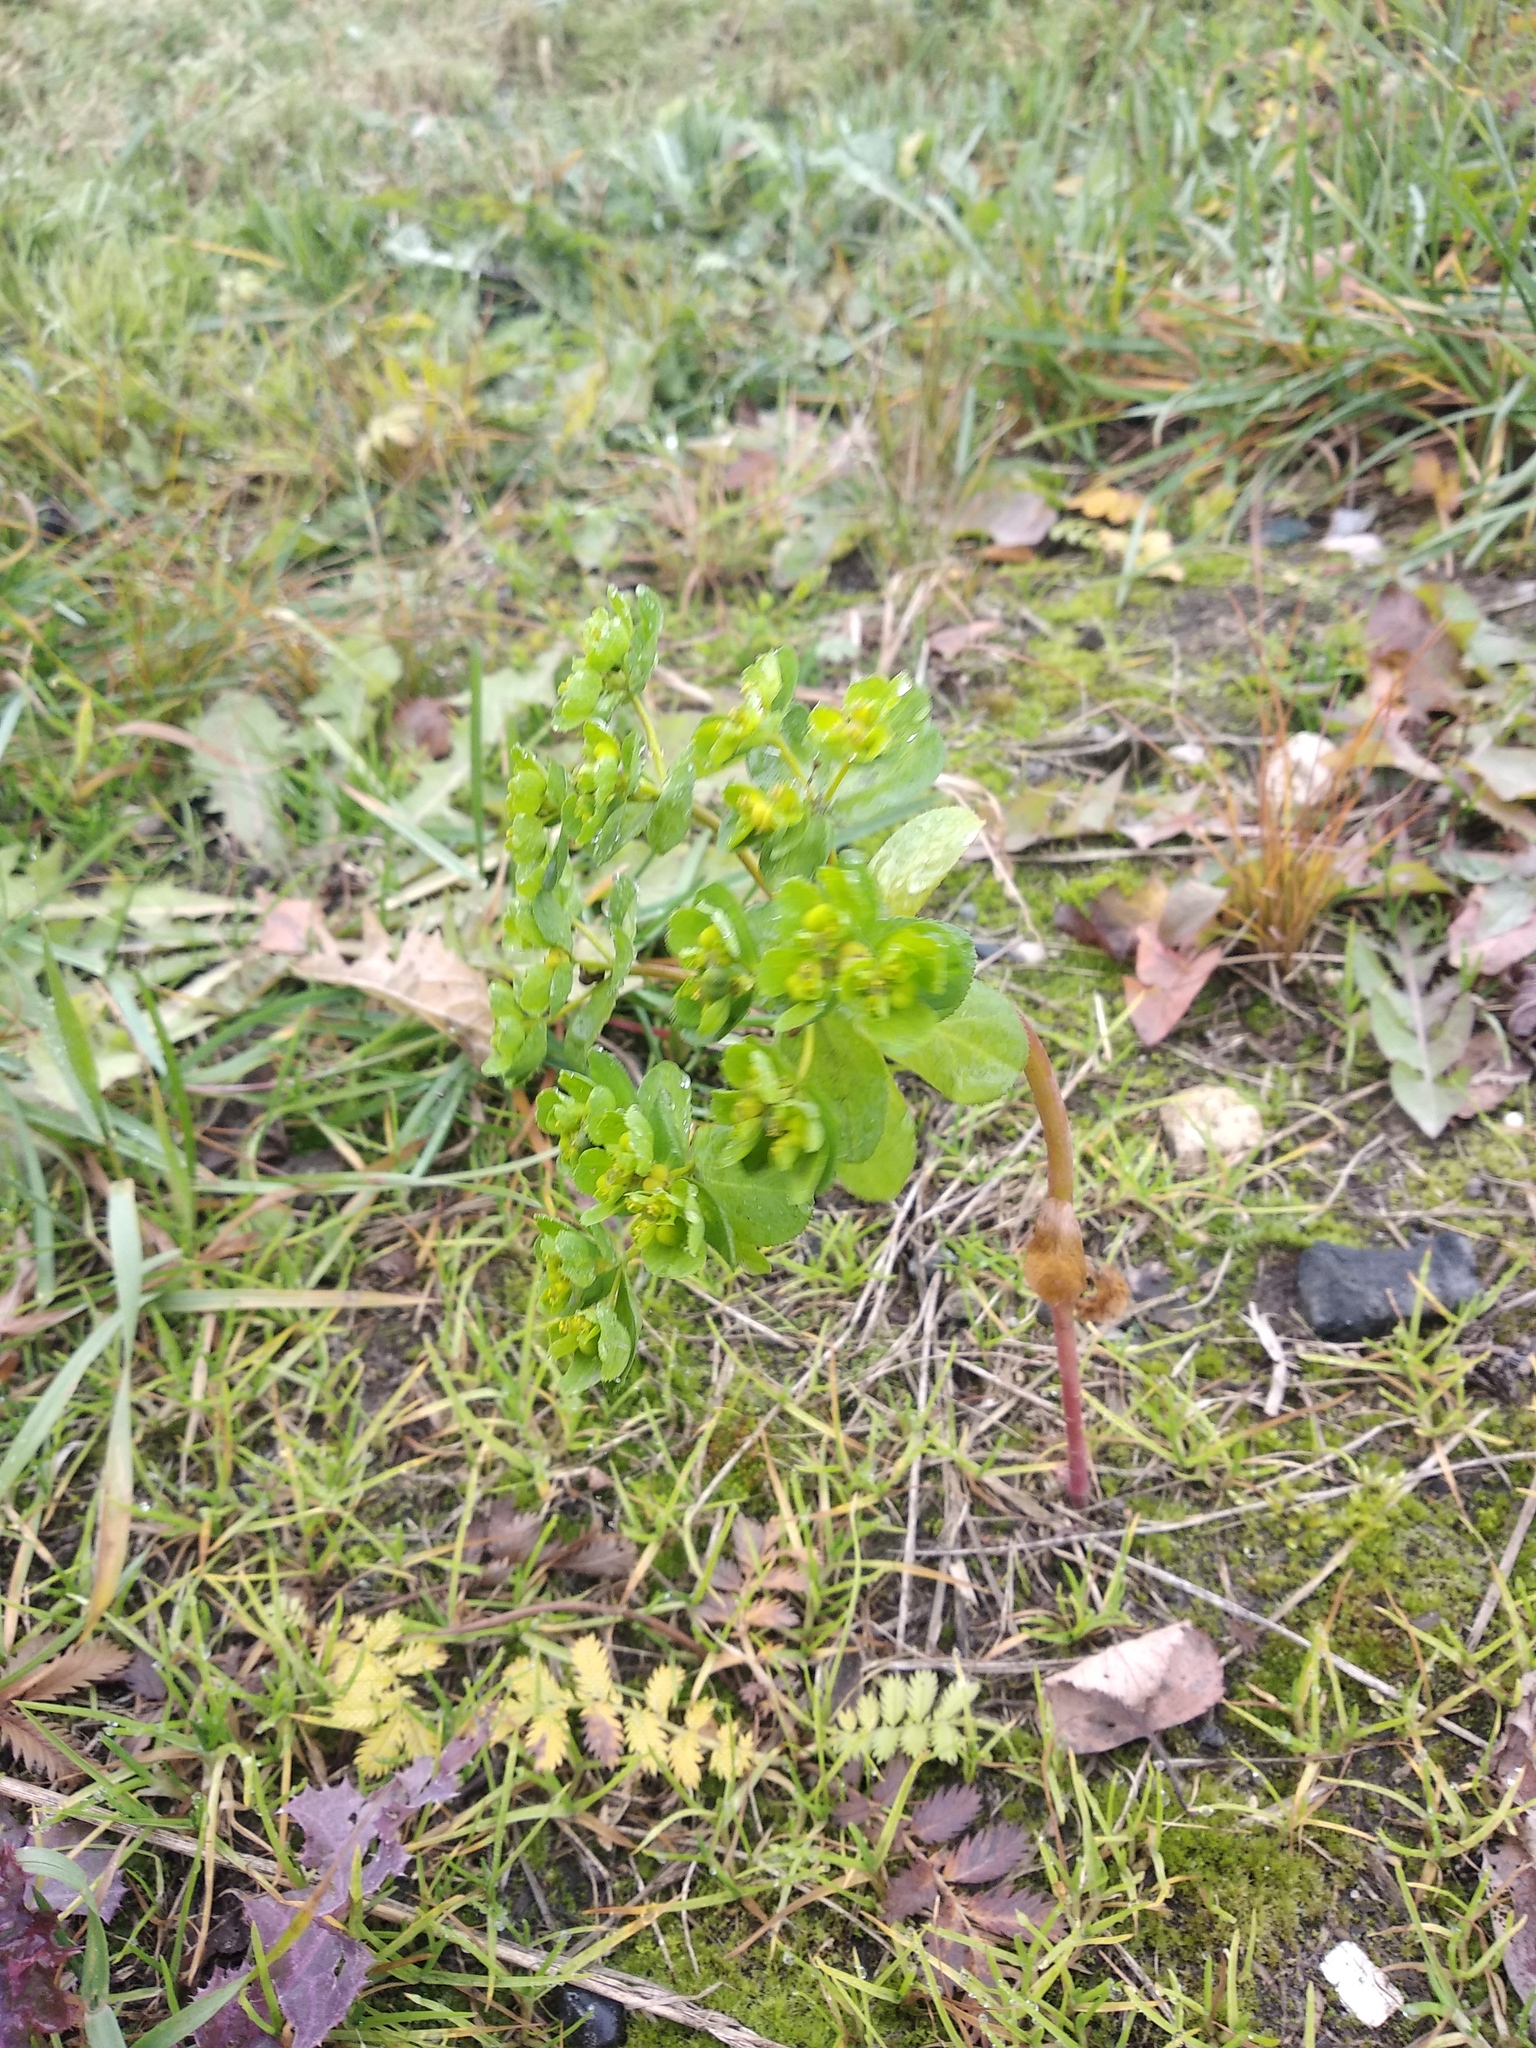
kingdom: Plantae
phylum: Tracheophyta
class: Magnoliopsida
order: Malpighiales
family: Euphorbiaceae
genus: Euphorbia
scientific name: Euphorbia helioscopia
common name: Sun spurge
